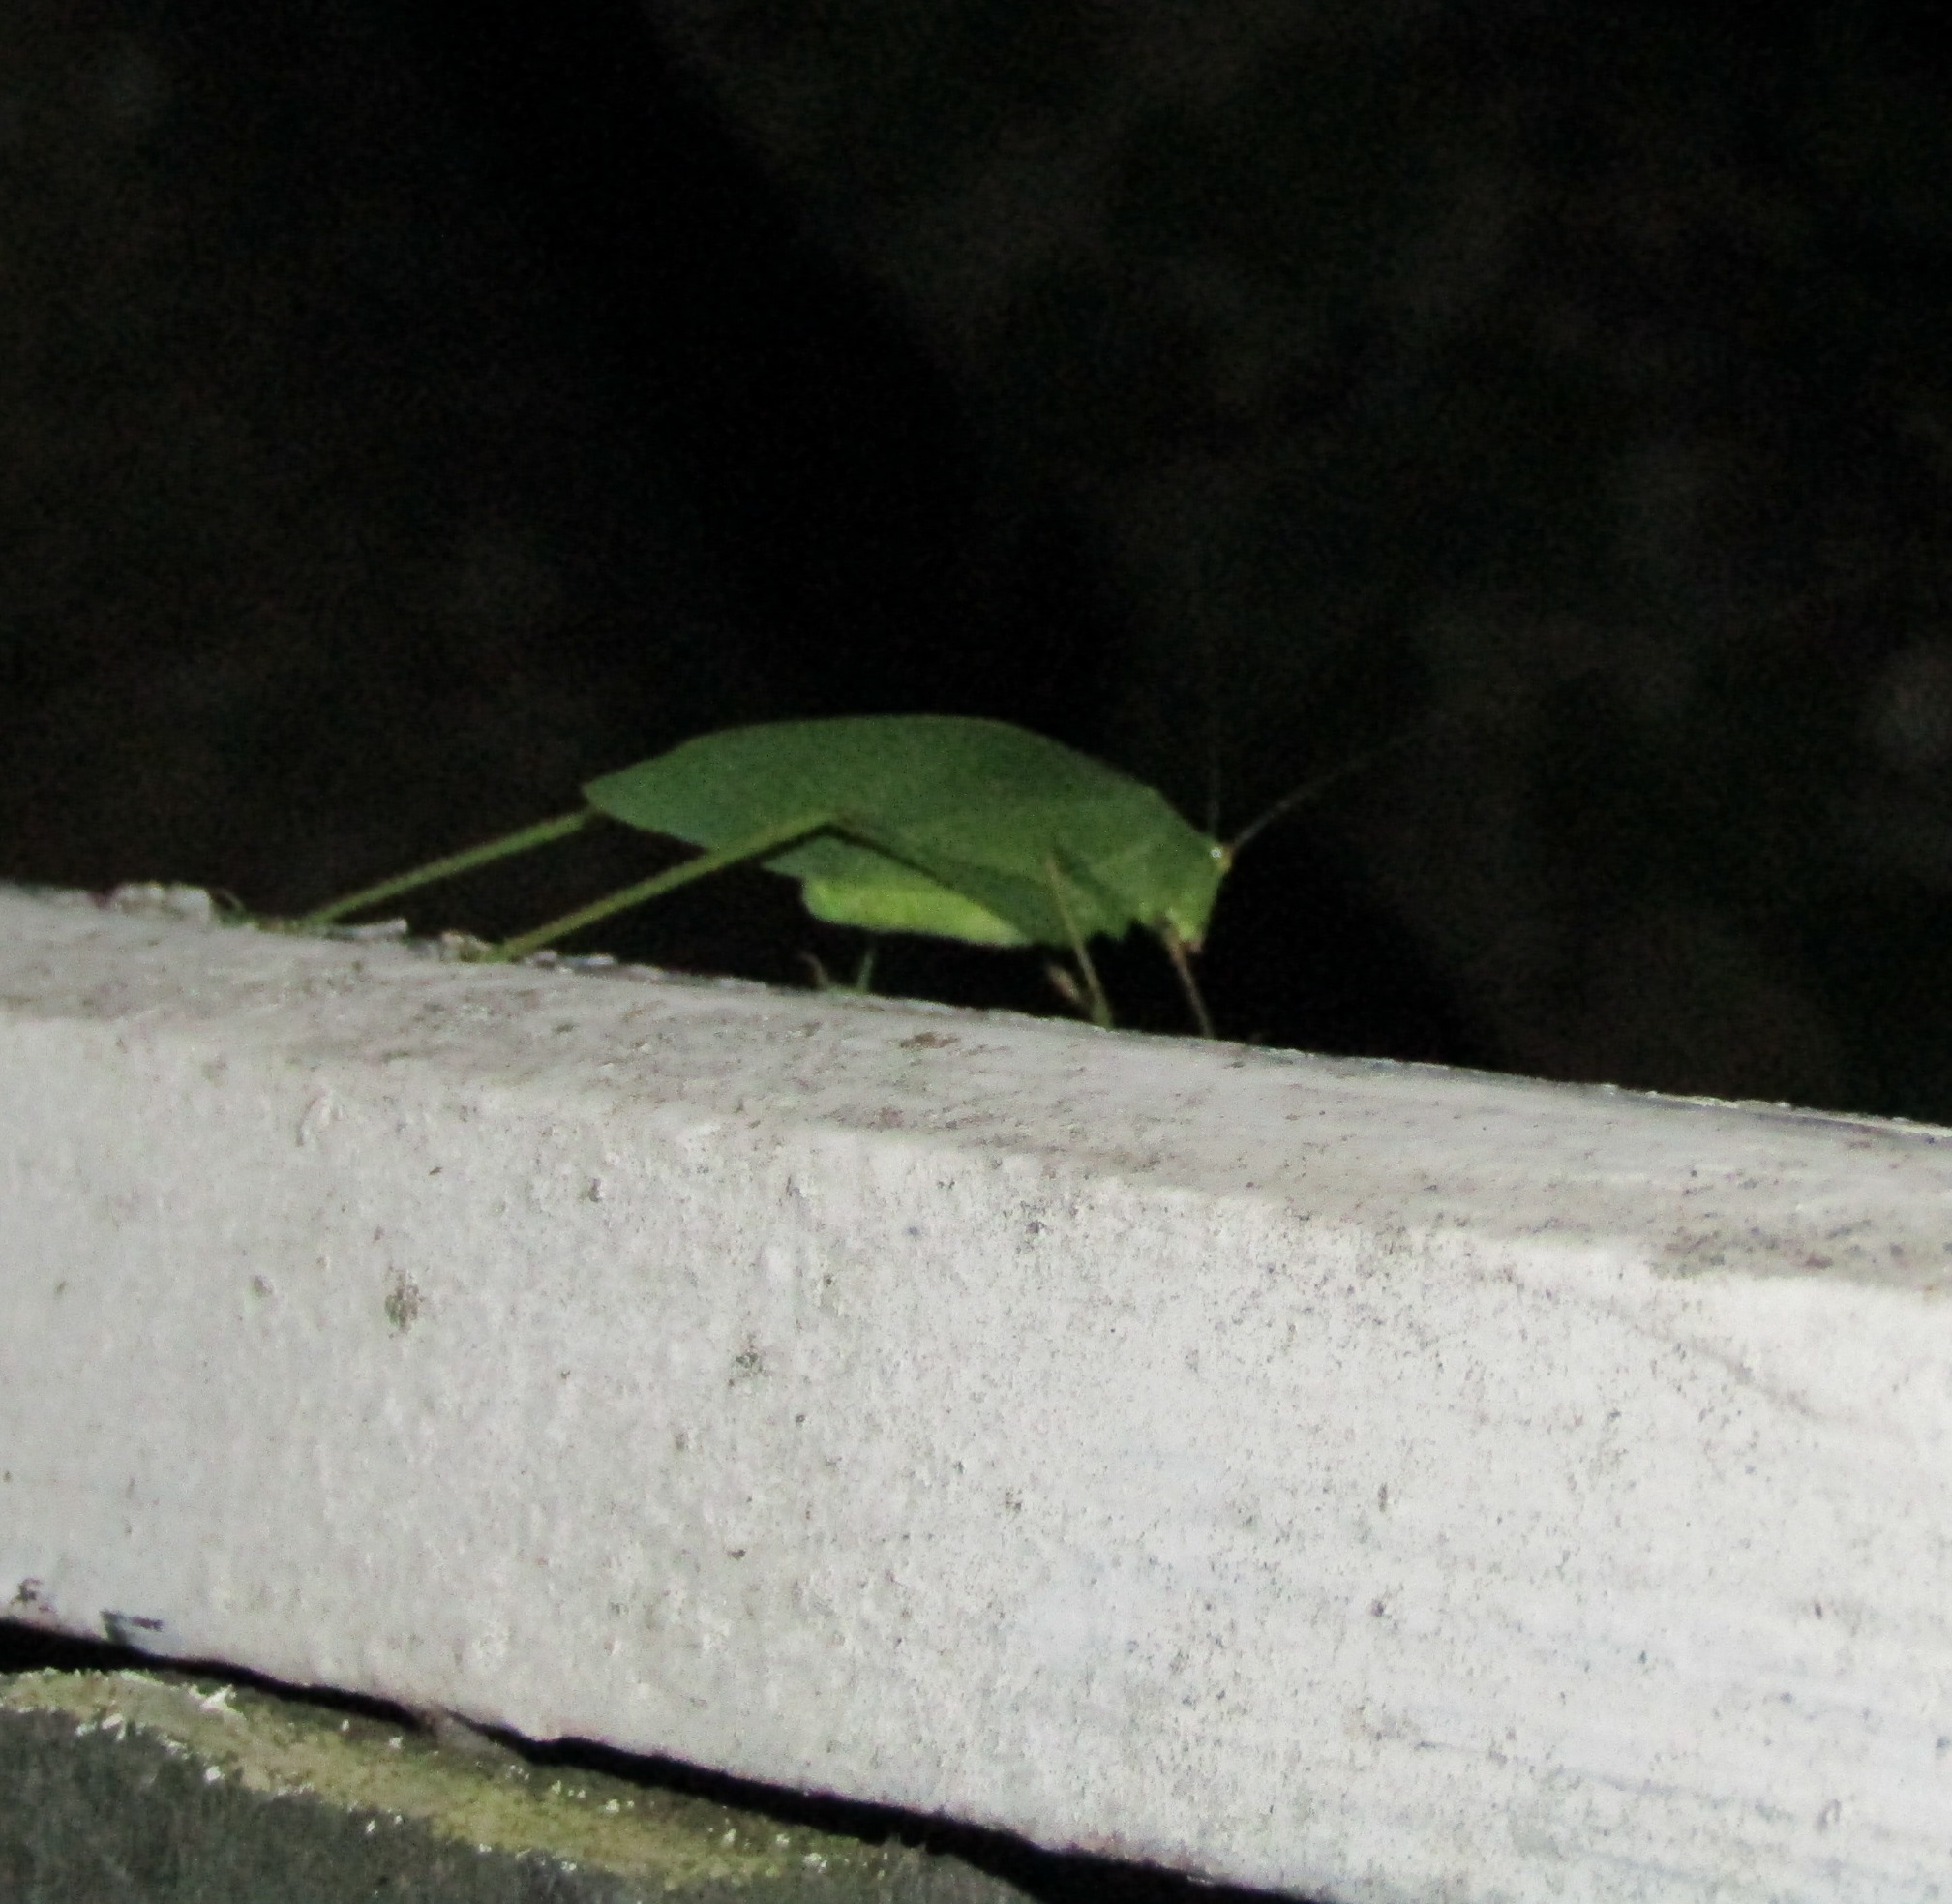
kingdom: Animalia
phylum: Arthropoda
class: Insecta
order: Orthoptera
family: Tettigoniidae
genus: Caedicia
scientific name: Caedicia simplex
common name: Common garden katydid
